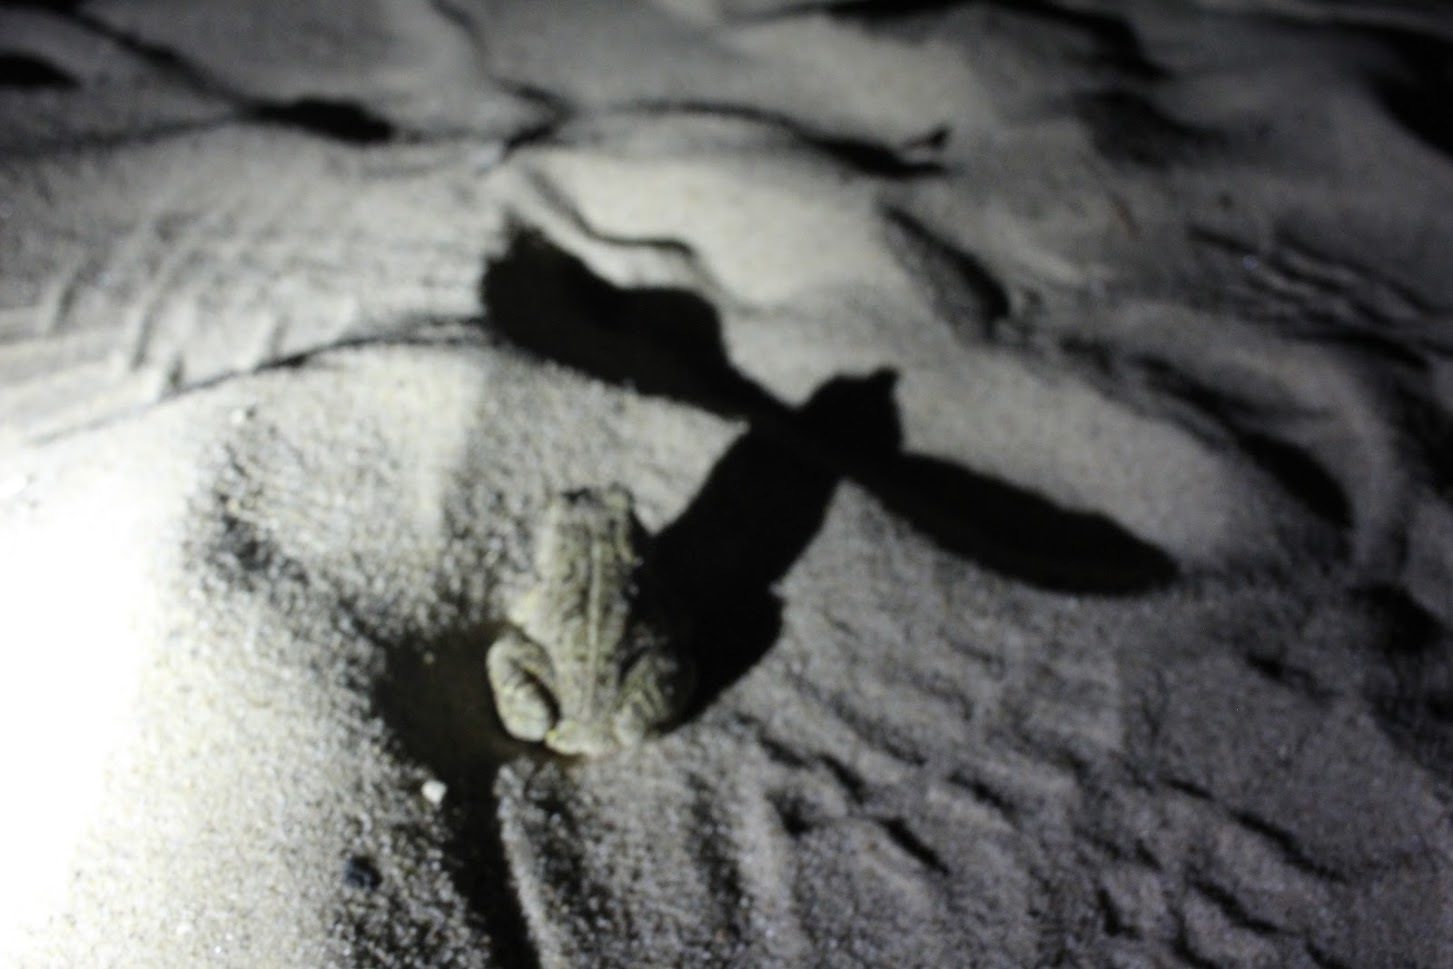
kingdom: Animalia
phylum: Chordata
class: Amphibia
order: Anura
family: Bufonidae
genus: Anaxyrus
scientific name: Anaxyrus fowleri
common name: Fowler's toad
